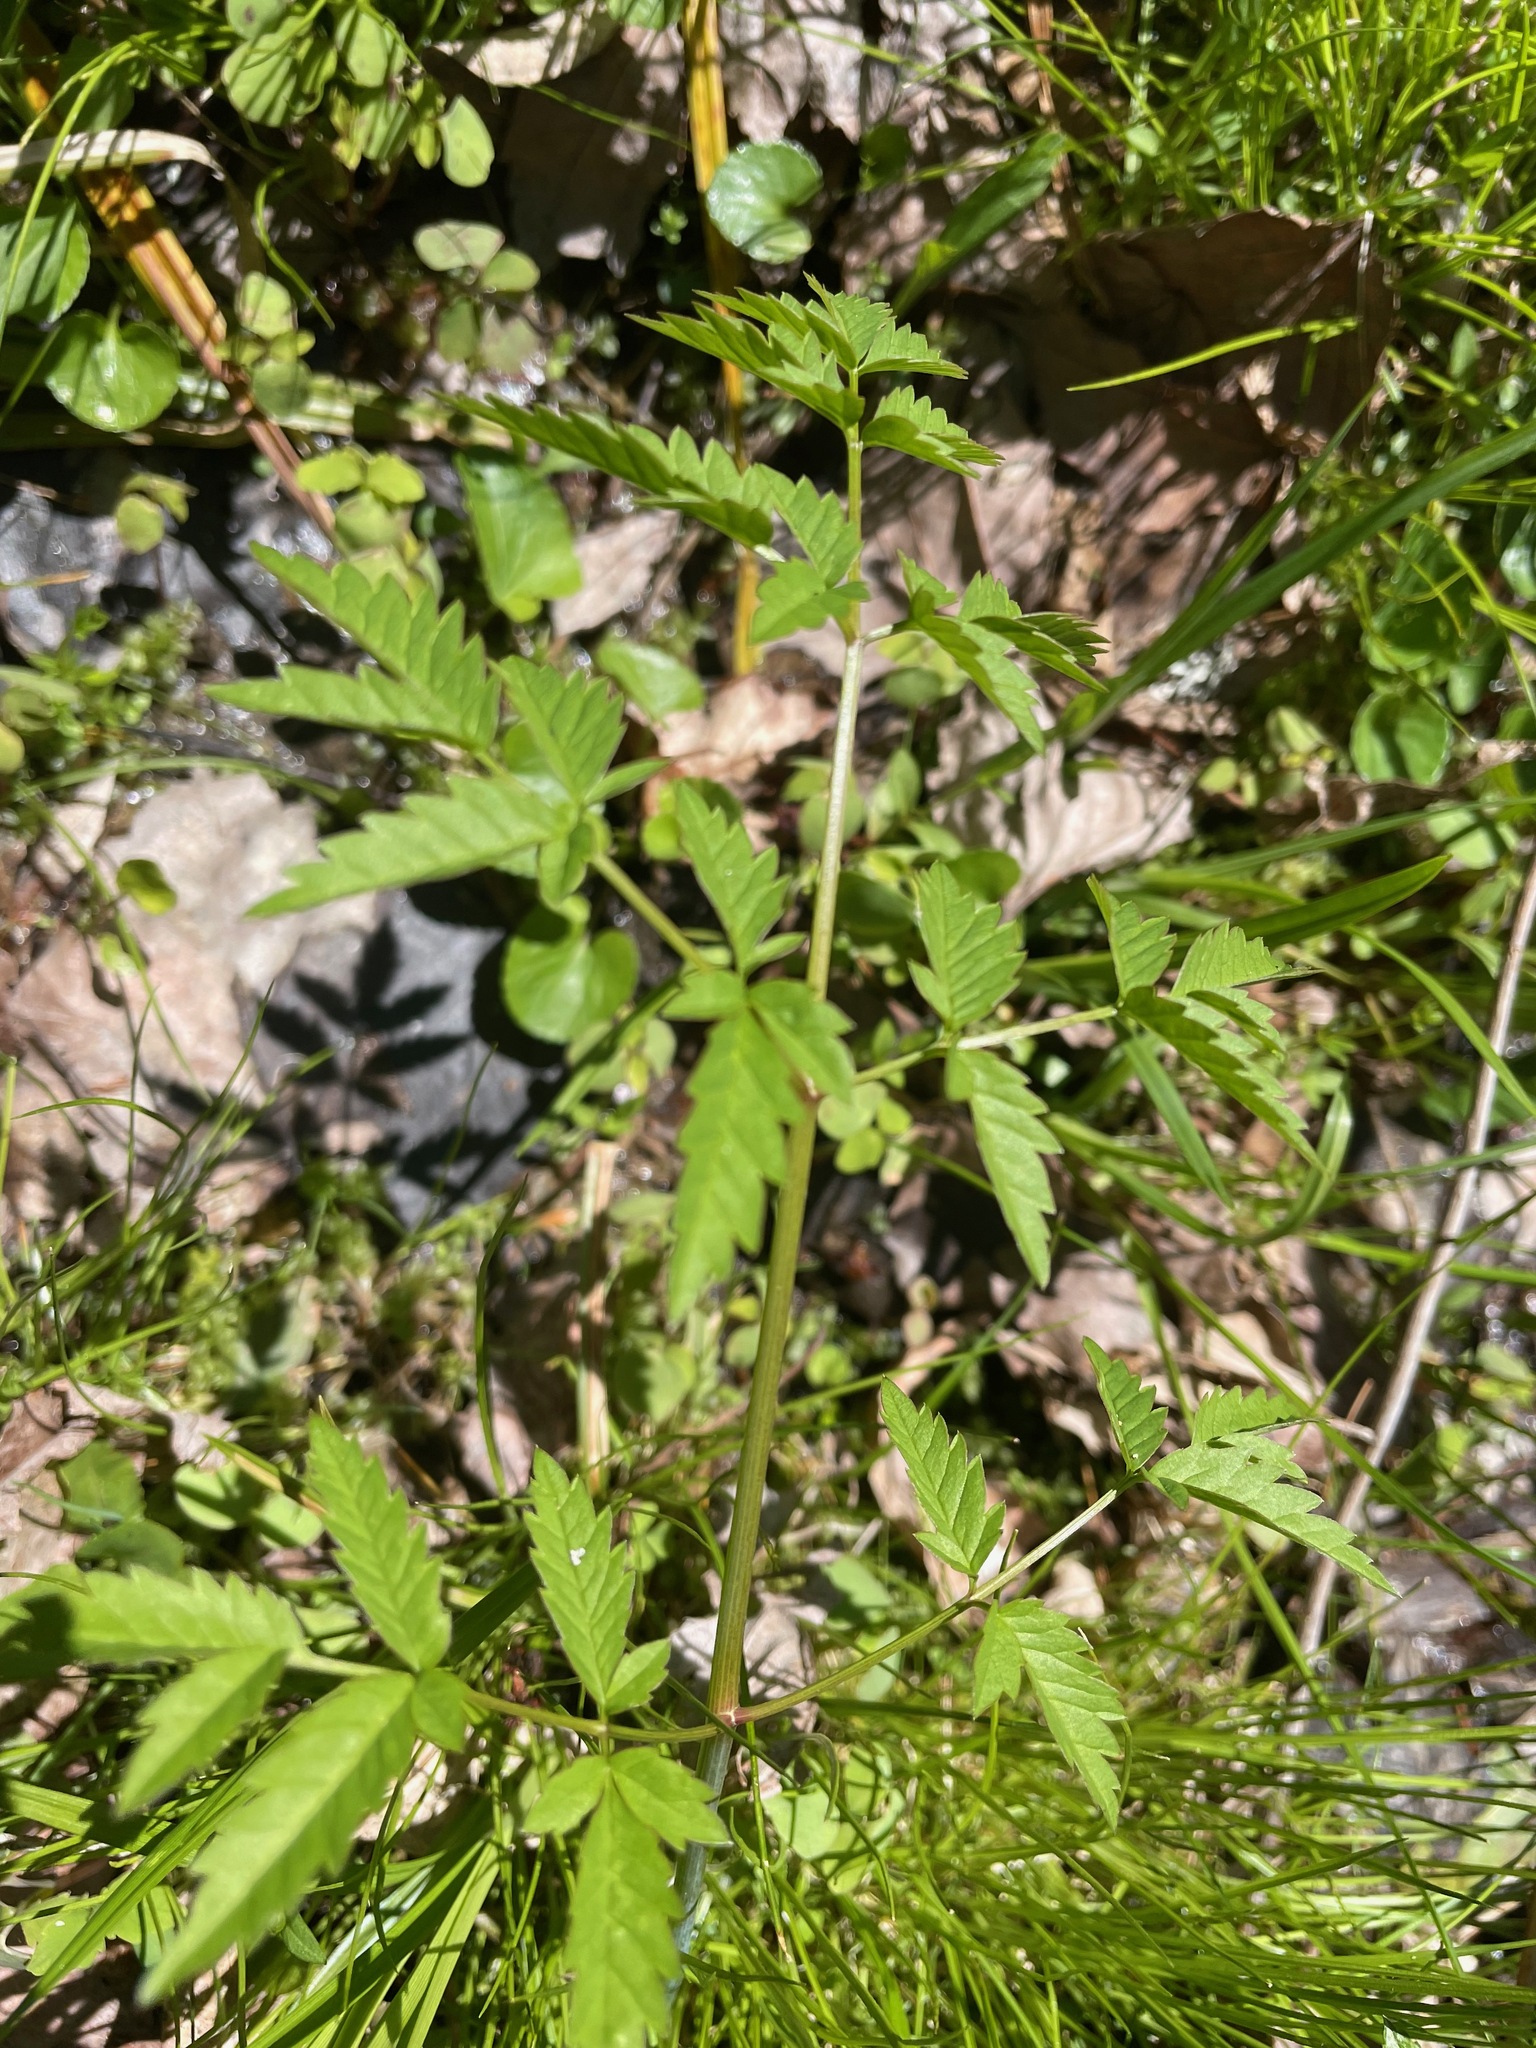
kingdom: Plantae
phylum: Tracheophyta
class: Magnoliopsida
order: Apiales
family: Apiaceae
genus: Cicuta
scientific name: Cicuta maculata
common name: Spotted cowbane
